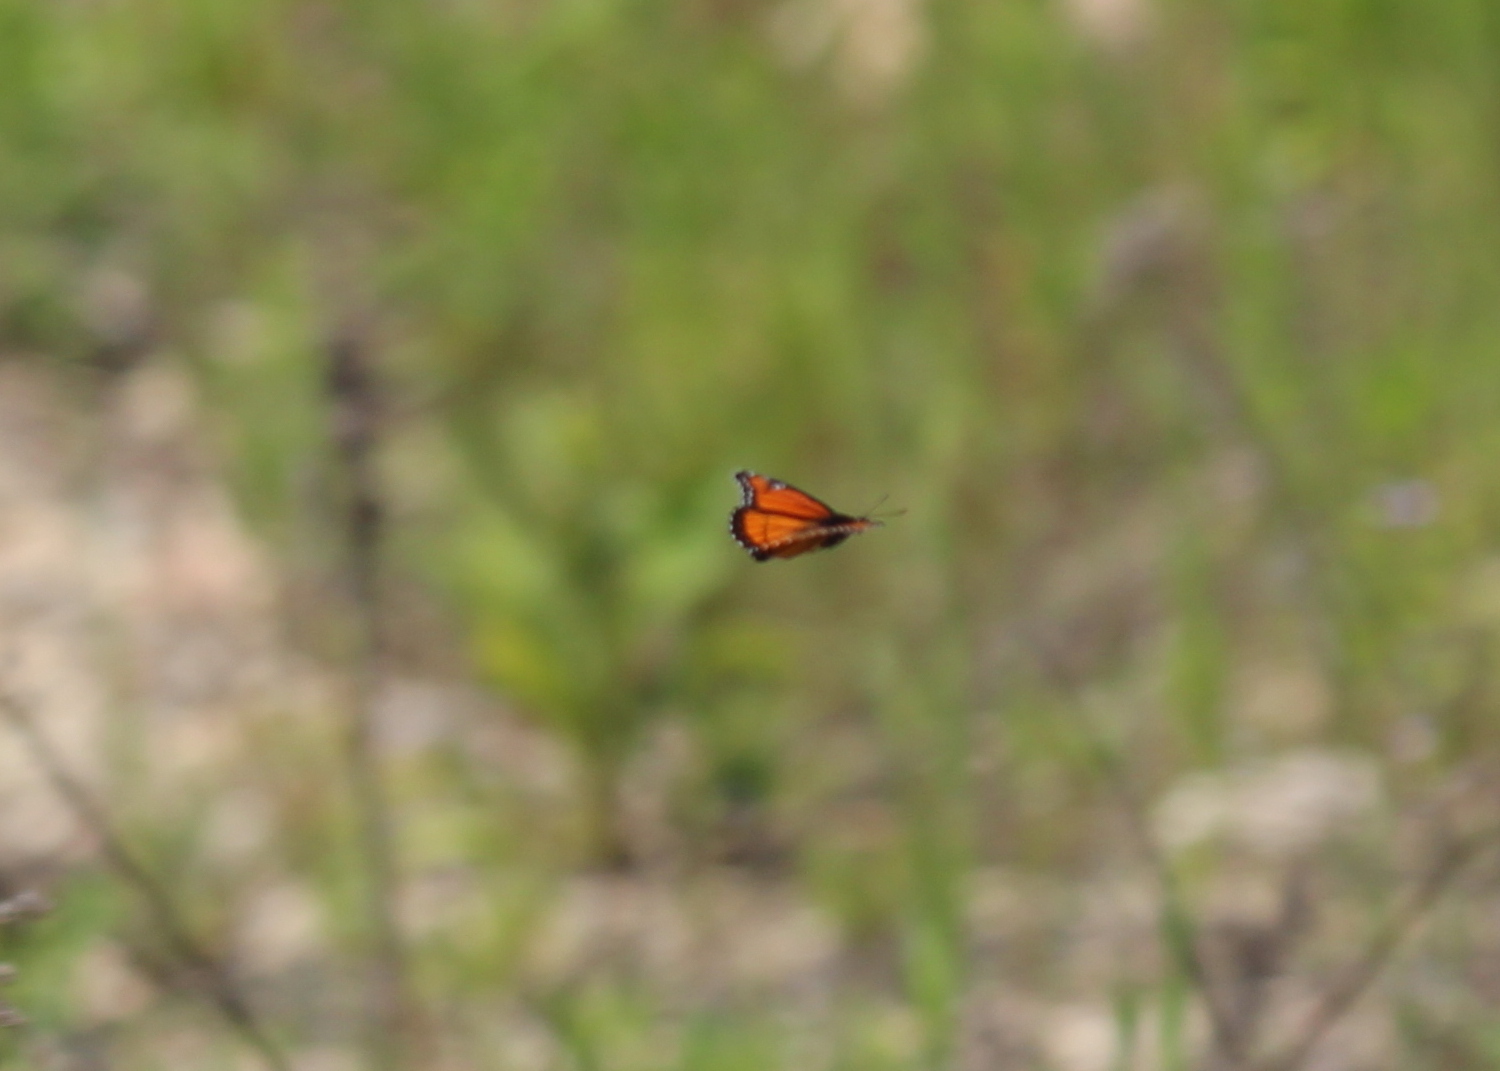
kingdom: Animalia
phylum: Arthropoda
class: Insecta
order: Lepidoptera
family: Nymphalidae
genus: Limenitis
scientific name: Limenitis archippus
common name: Viceroy
